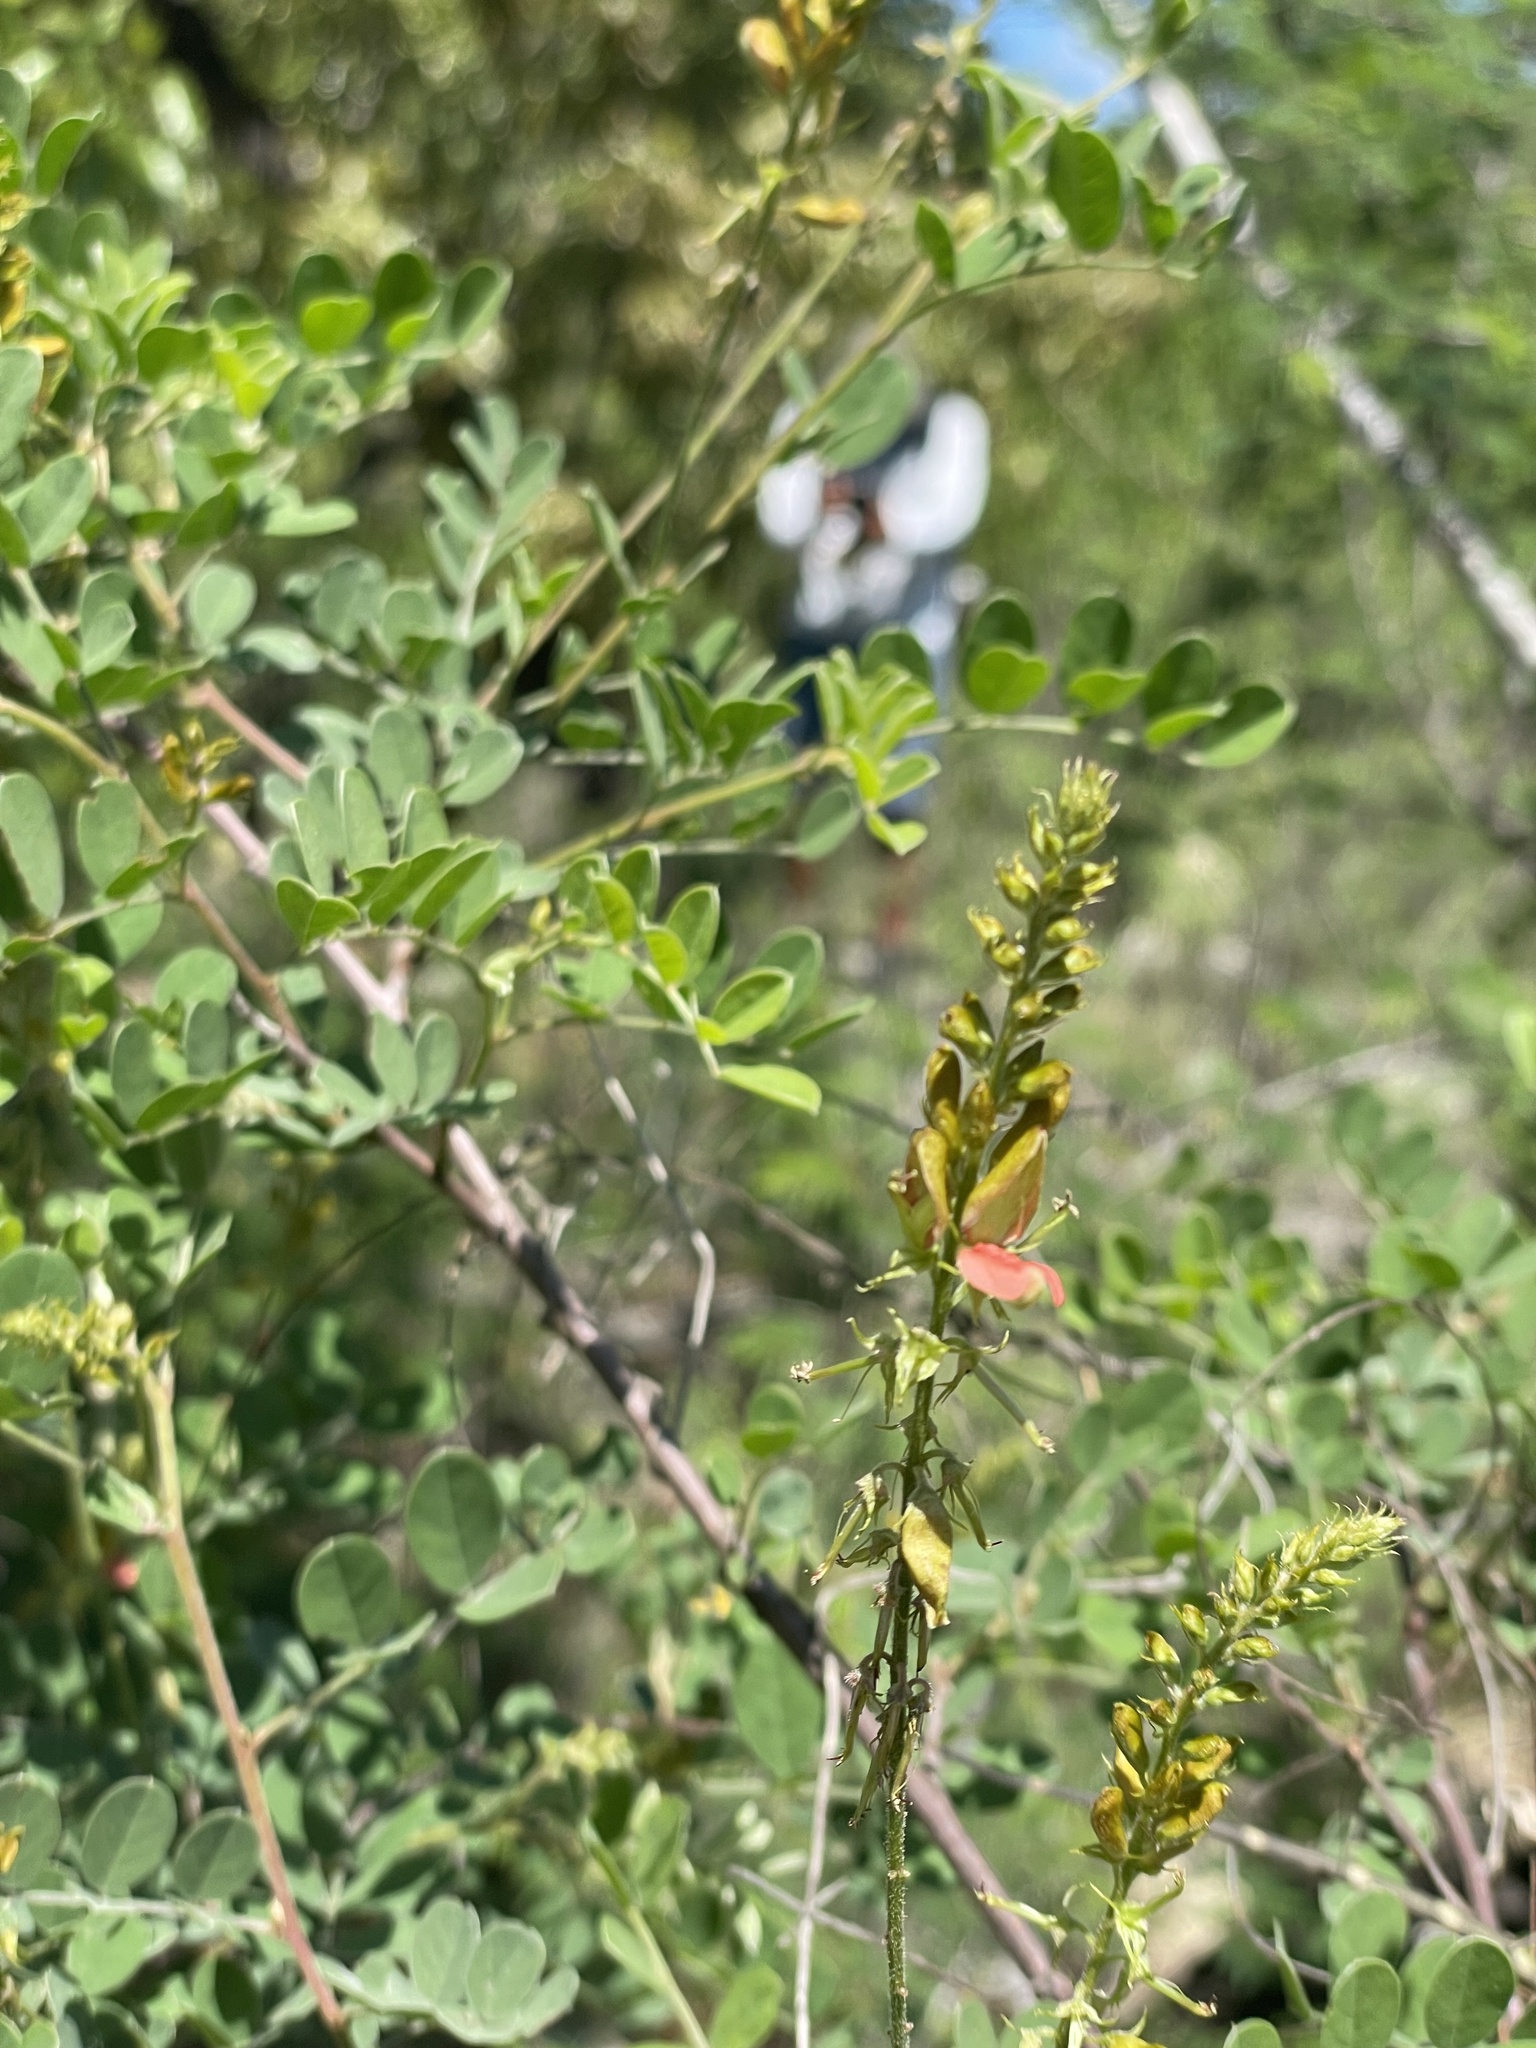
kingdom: Plantae
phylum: Tracheophyta
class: Magnoliopsida
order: Fabales
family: Fabaceae
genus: Indigofera
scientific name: Indigofera fruticosa
